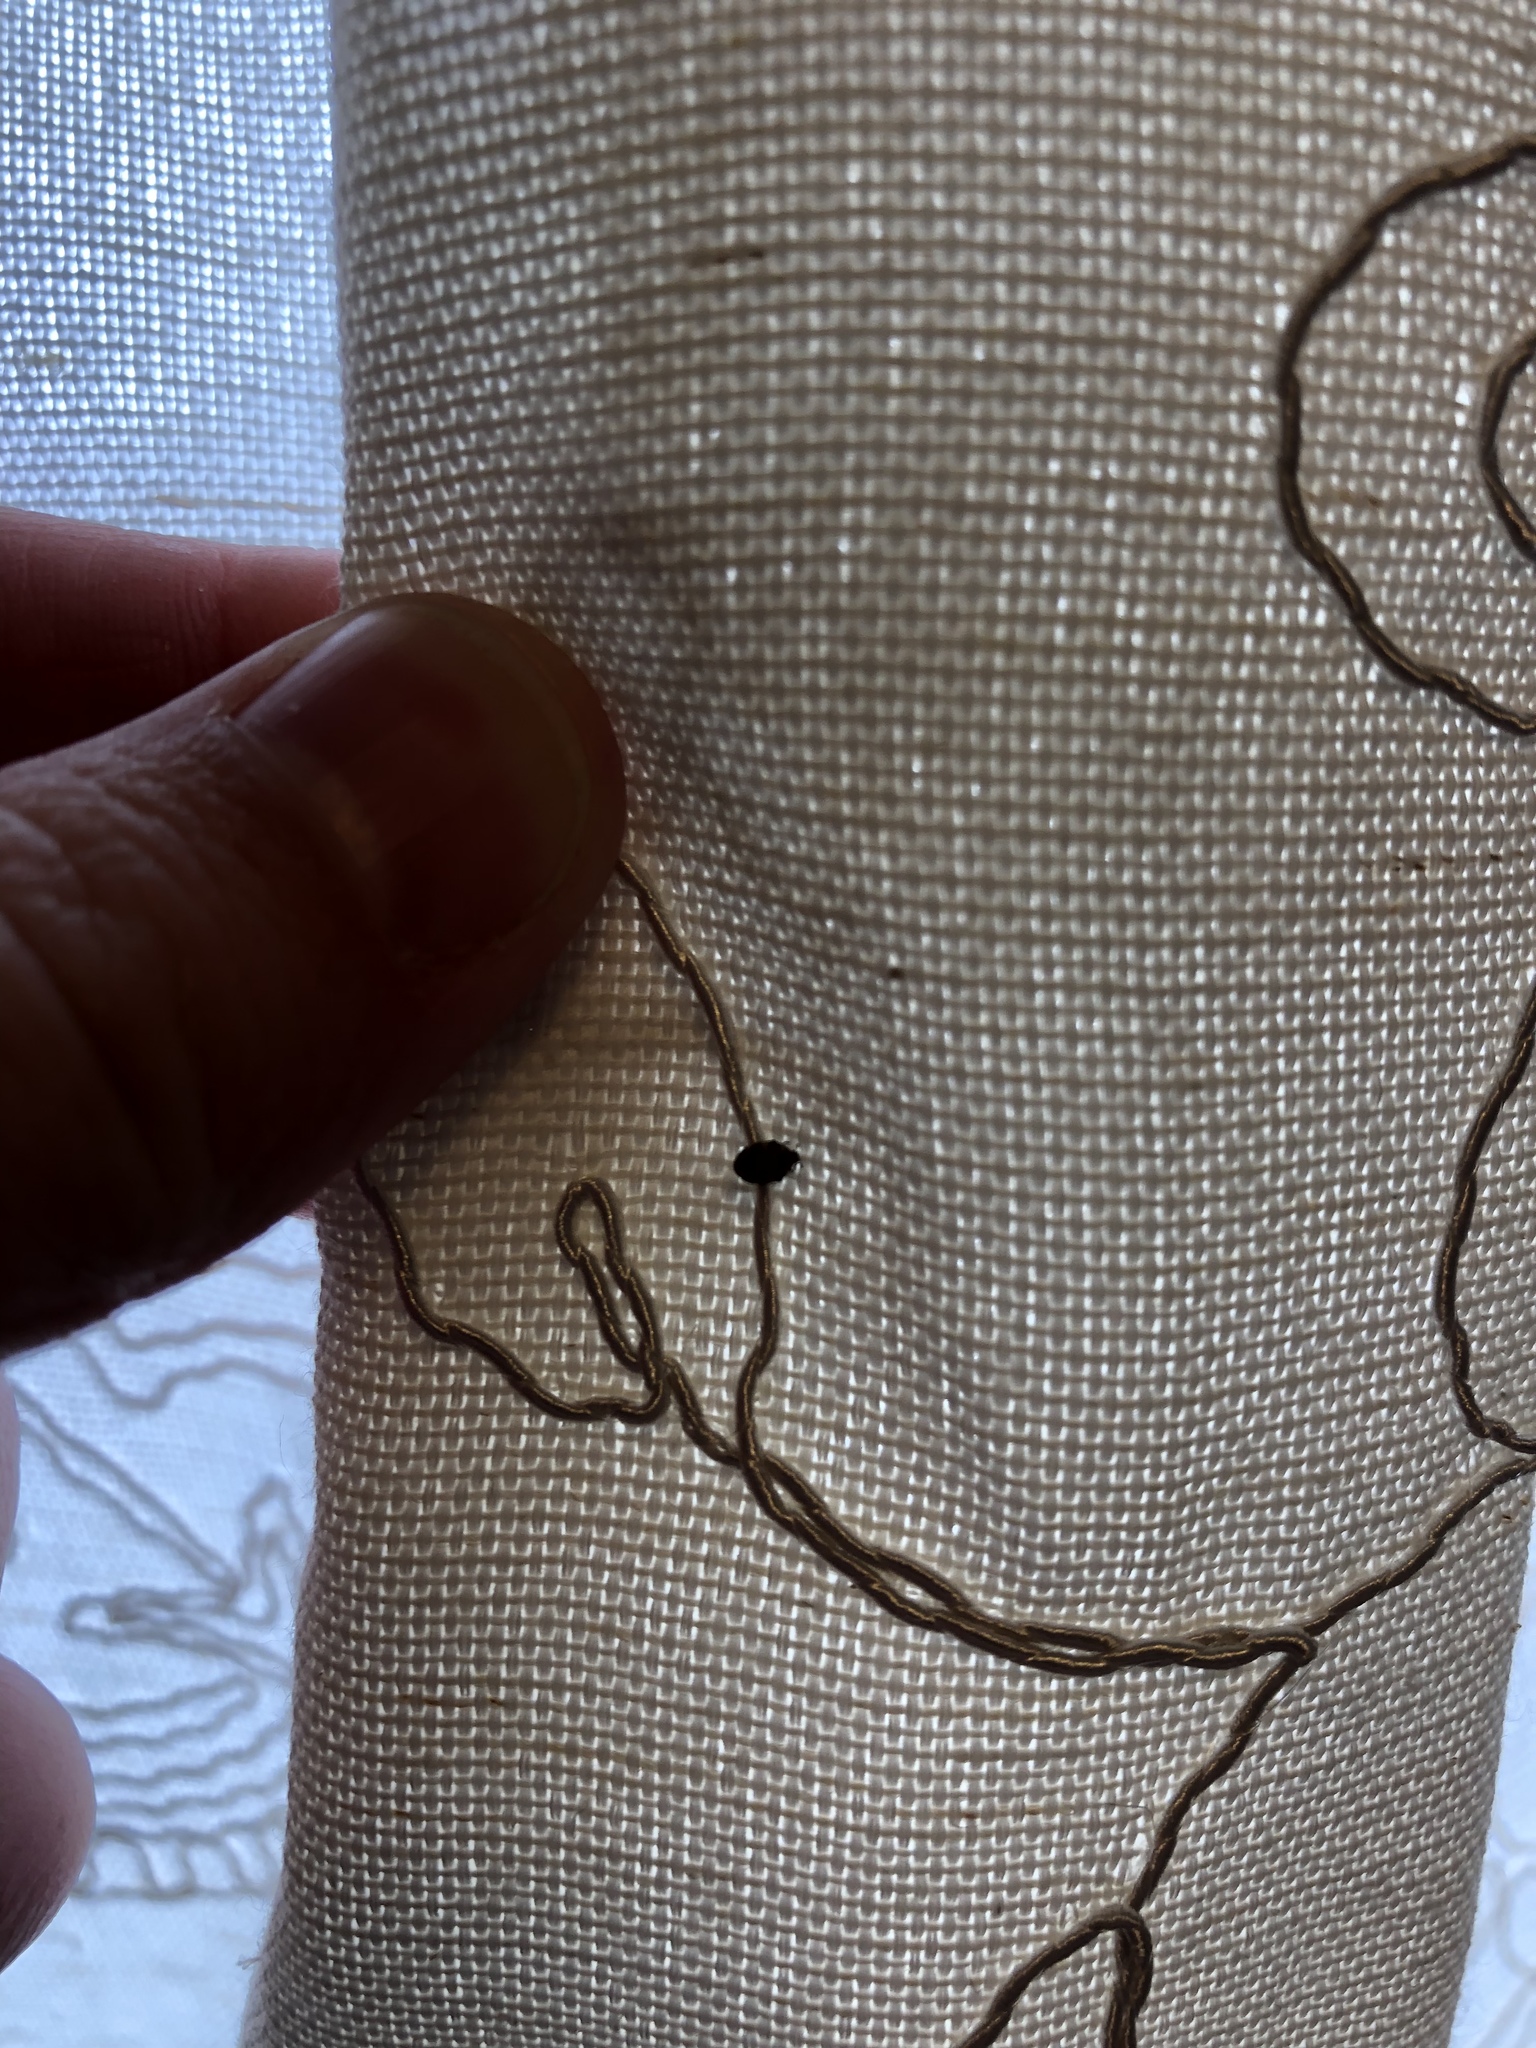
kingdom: Animalia
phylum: Arthropoda
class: Insecta
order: Coleoptera
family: Dermestidae
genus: Anthrenus
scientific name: Anthrenus verbasci
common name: Varied carpet beetle
